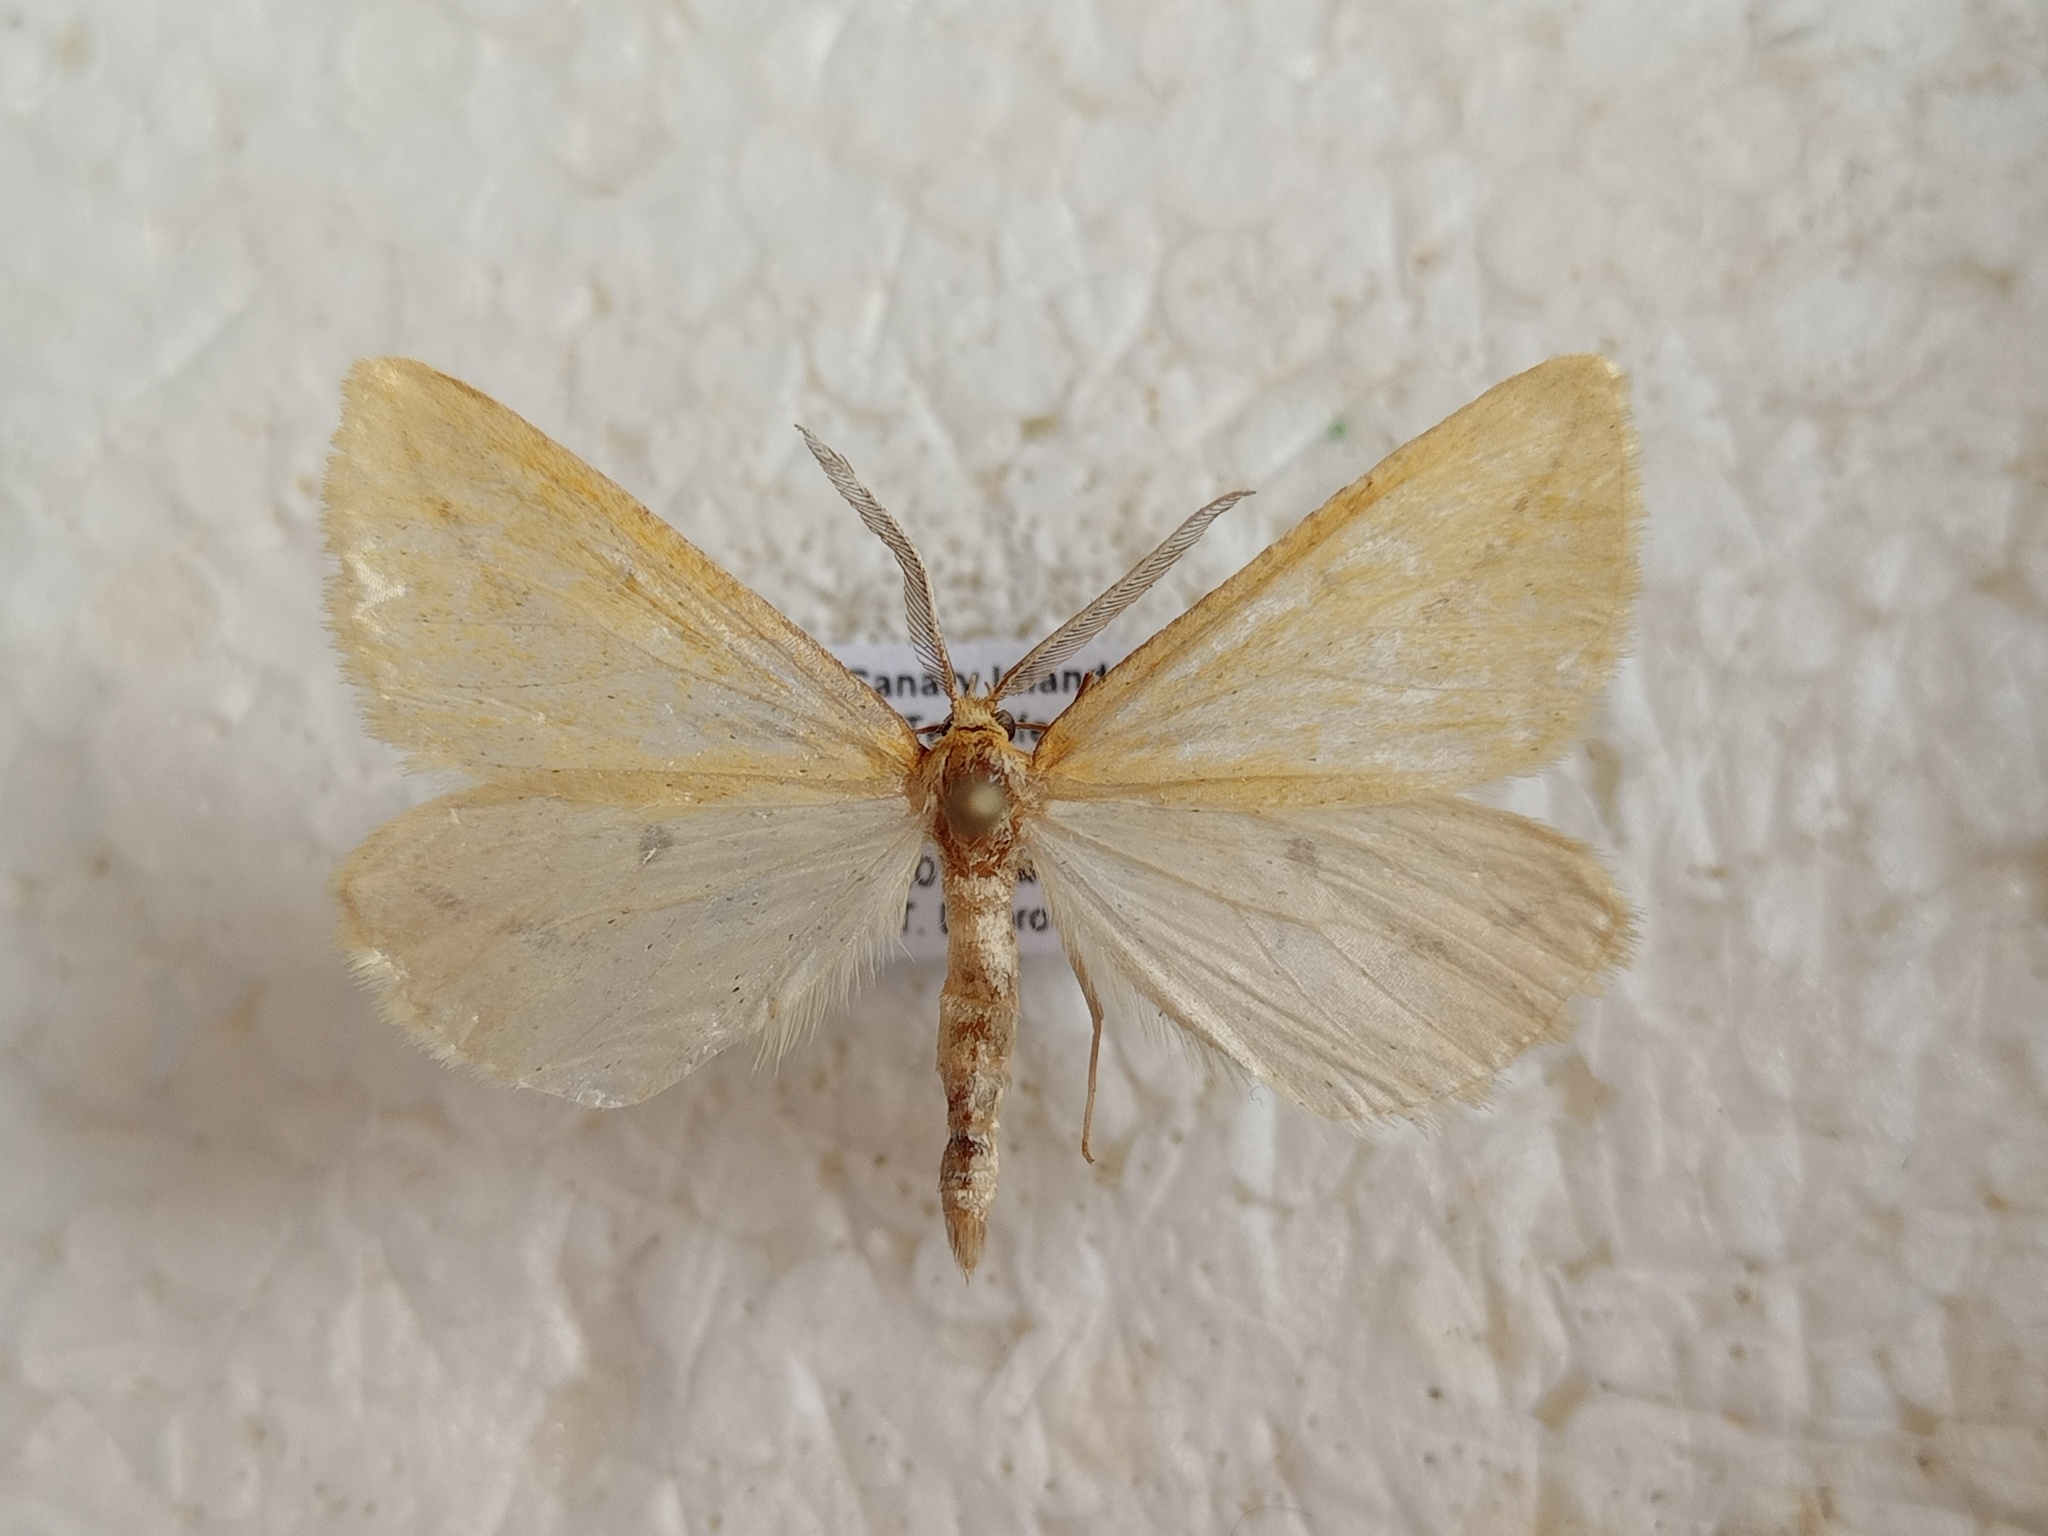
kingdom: Animalia
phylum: Arthropoda
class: Insecta
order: Lepidoptera
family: Geometridae
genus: Aspitates
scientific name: Aspitates collinaria
